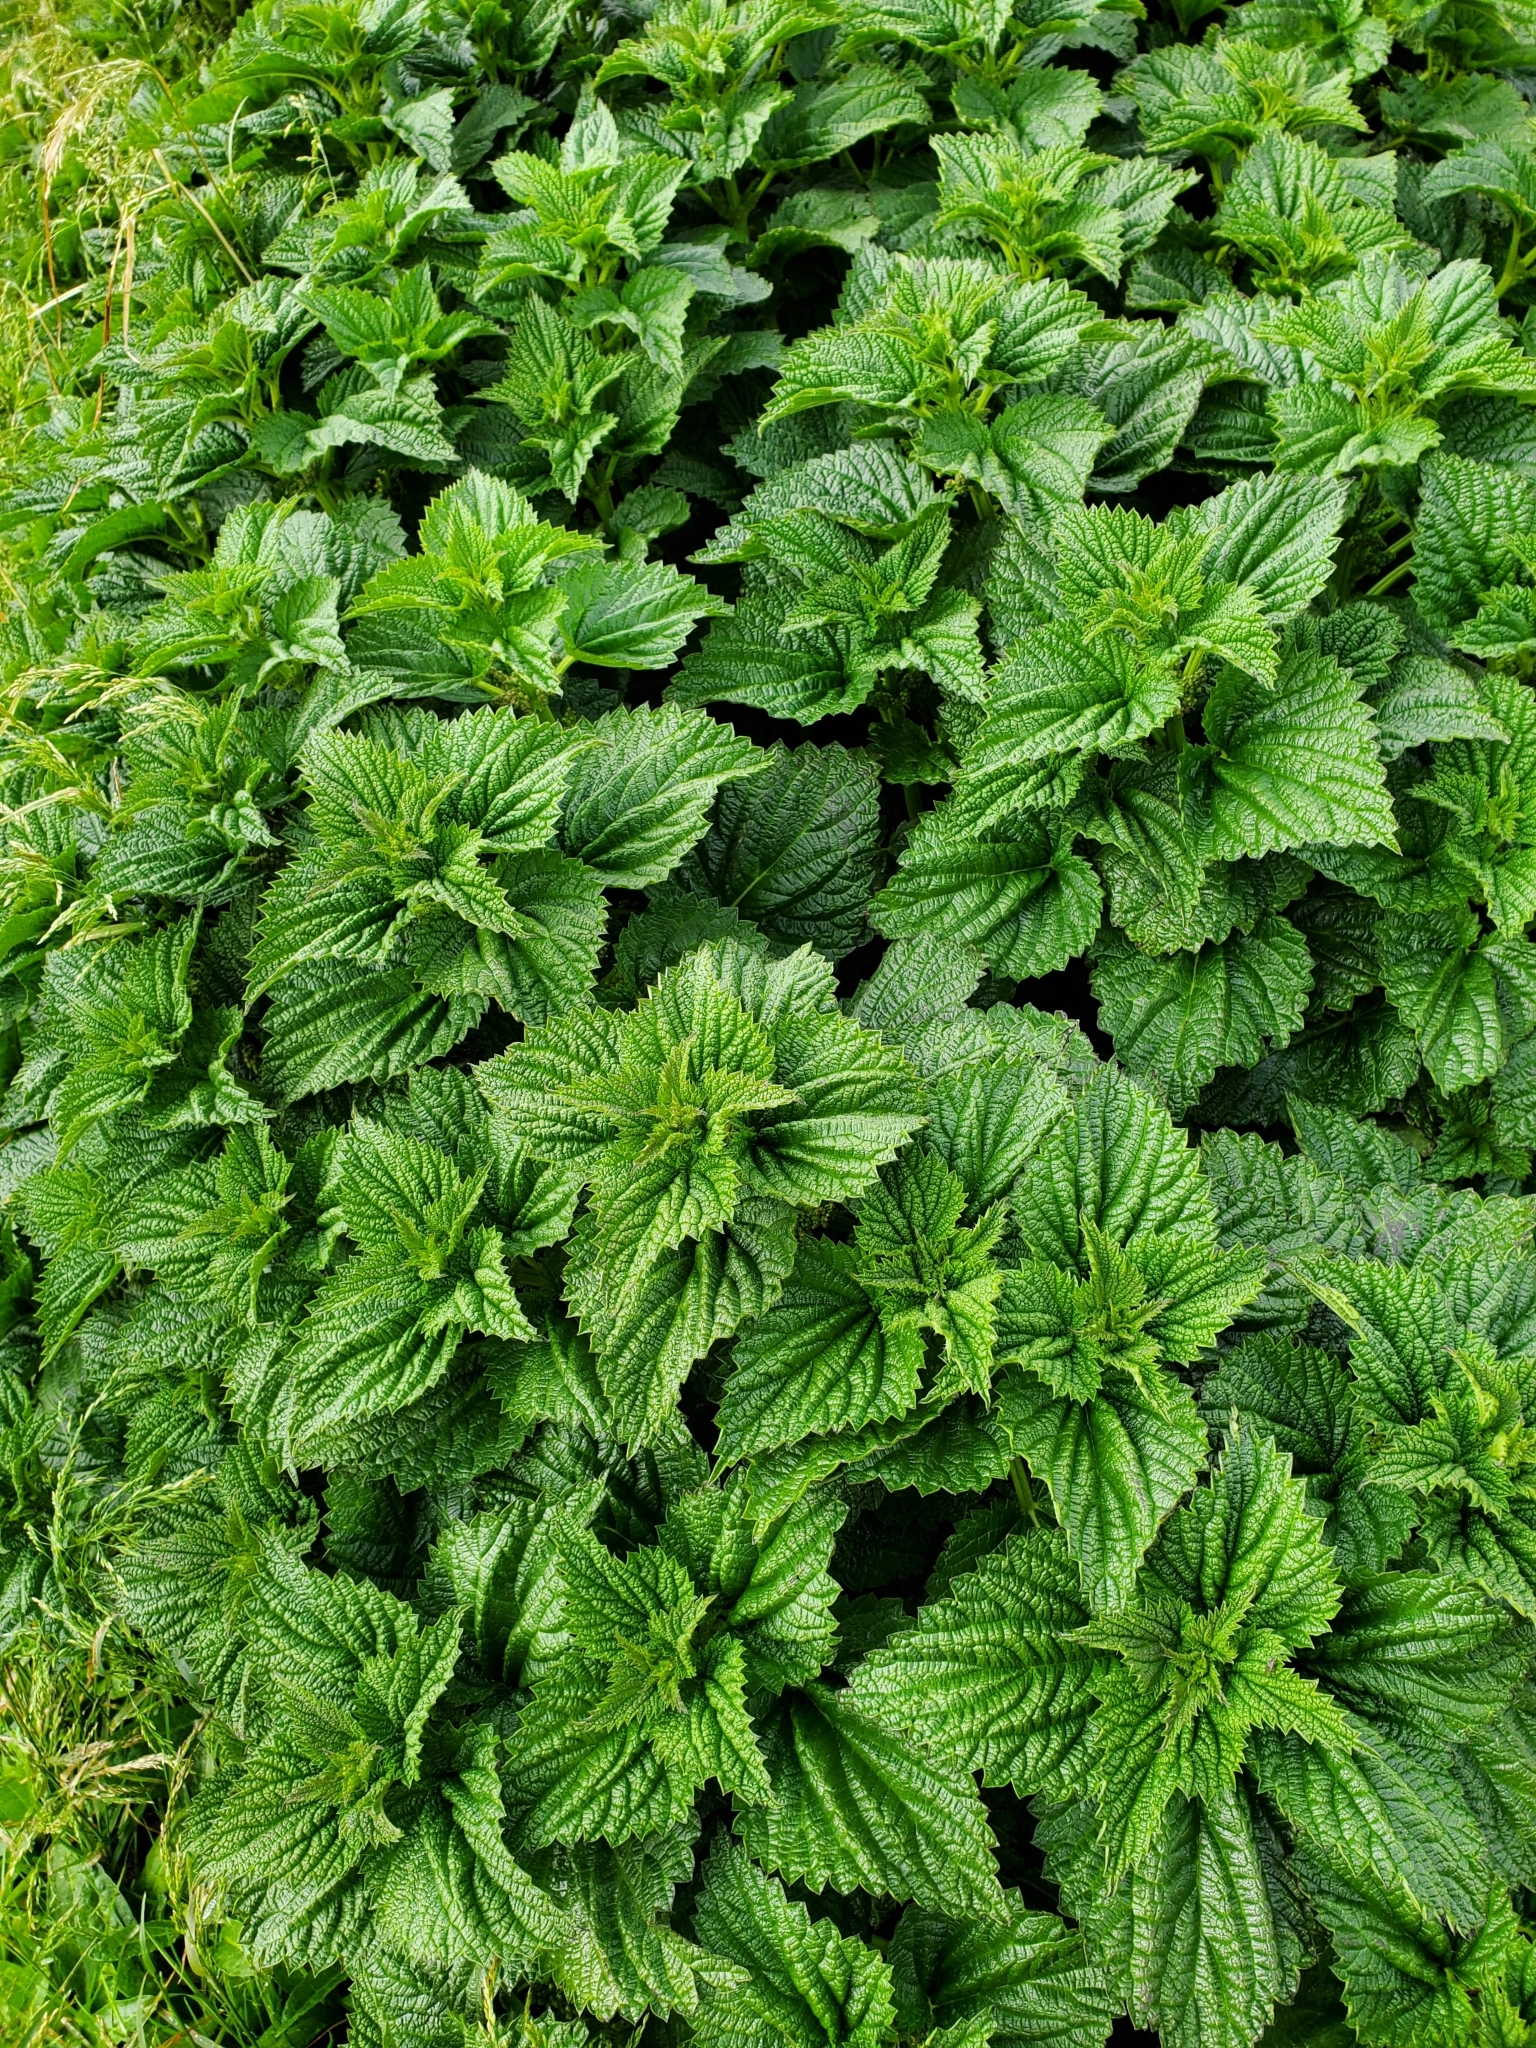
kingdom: Plantae
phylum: Tracheophyta
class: Magnoliopsida
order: Rosales
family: Urticaceae
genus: Urtica
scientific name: Urtica australis
